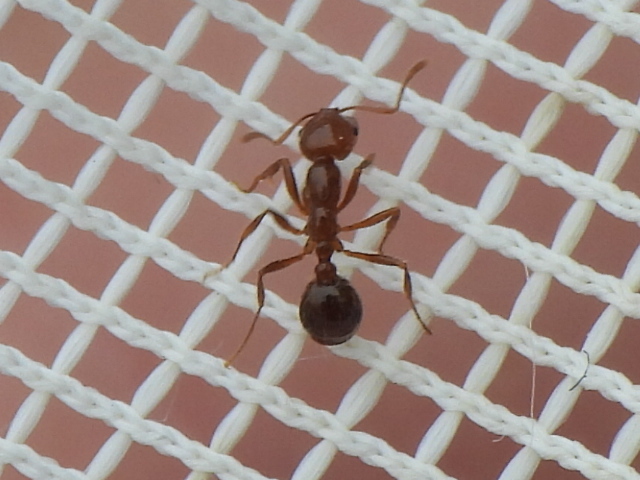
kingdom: Animalia
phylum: Arthropoda
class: Insecta
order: Hymenoptera
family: Formicidae
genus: Solenopsis
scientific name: Solenopsis invicta
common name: Red imported fire ant
